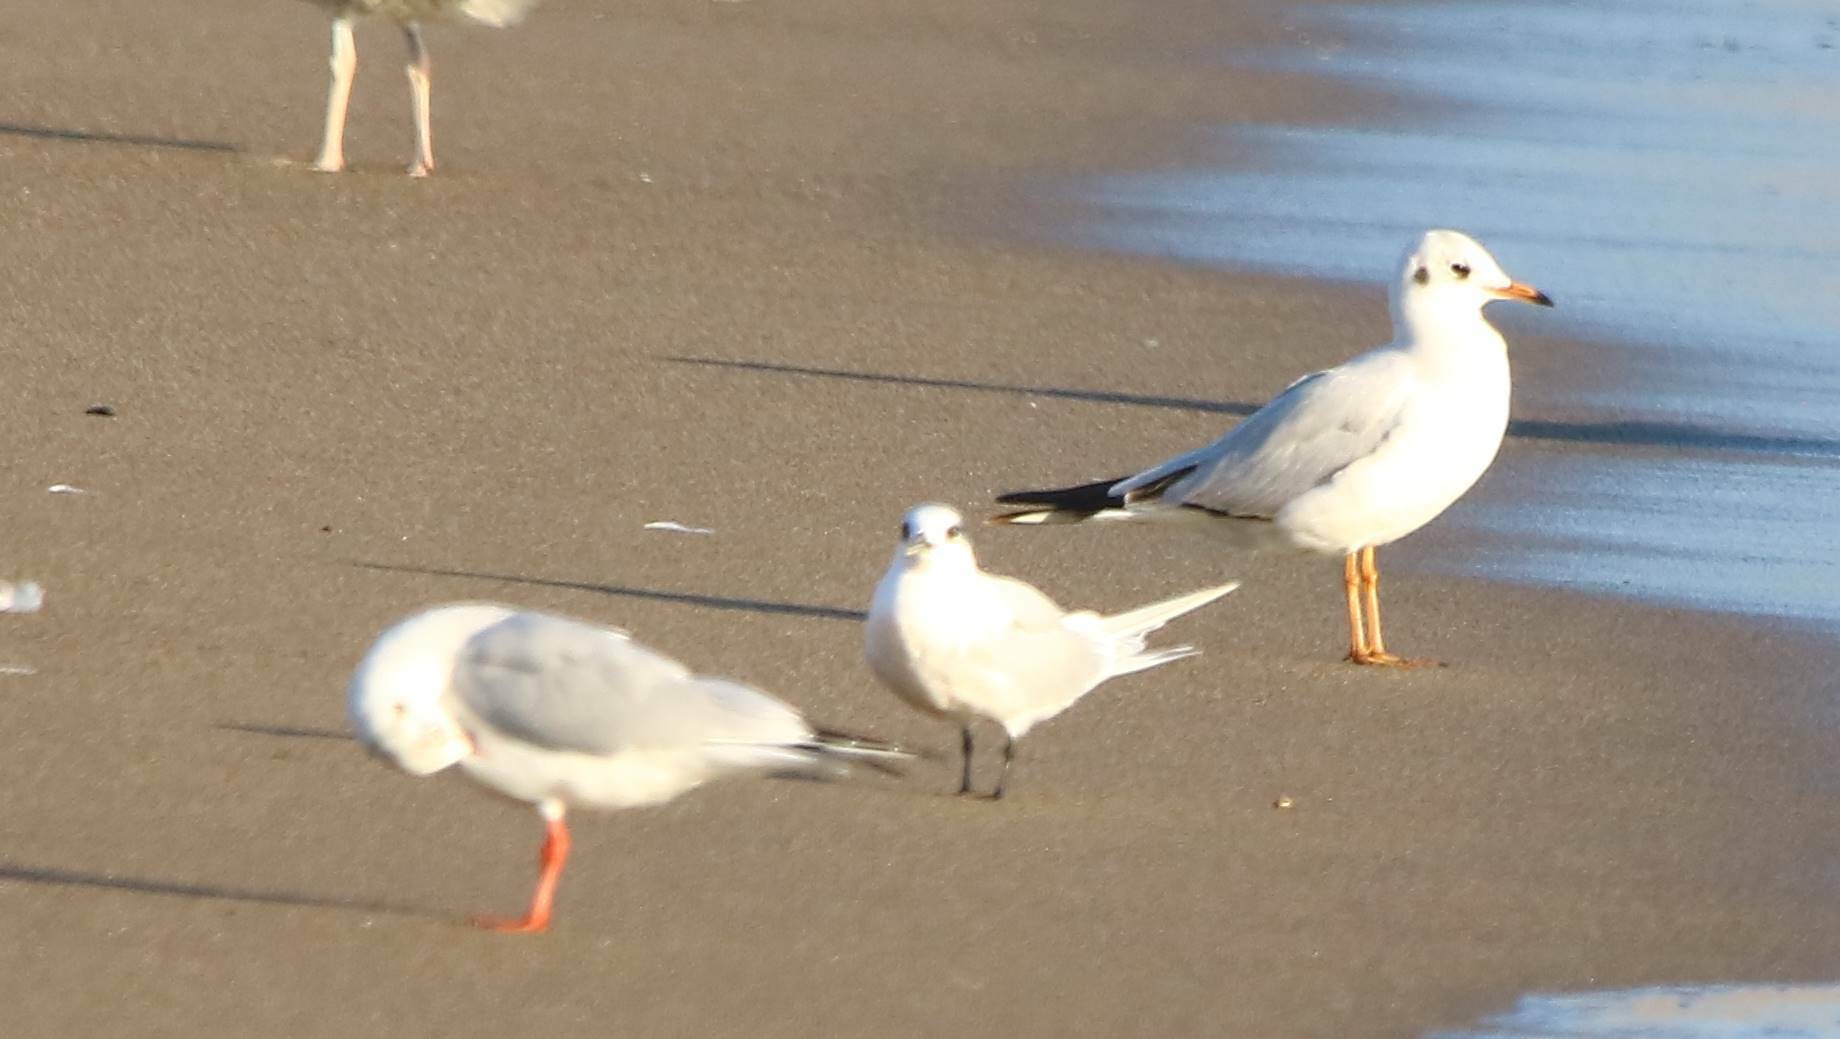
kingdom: Animalia
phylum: Chordata
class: Aves
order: Charadriiformes
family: Laridae
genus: Chroicocephalus
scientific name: Chroicocephalus ridibundus
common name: Black-headed gull
